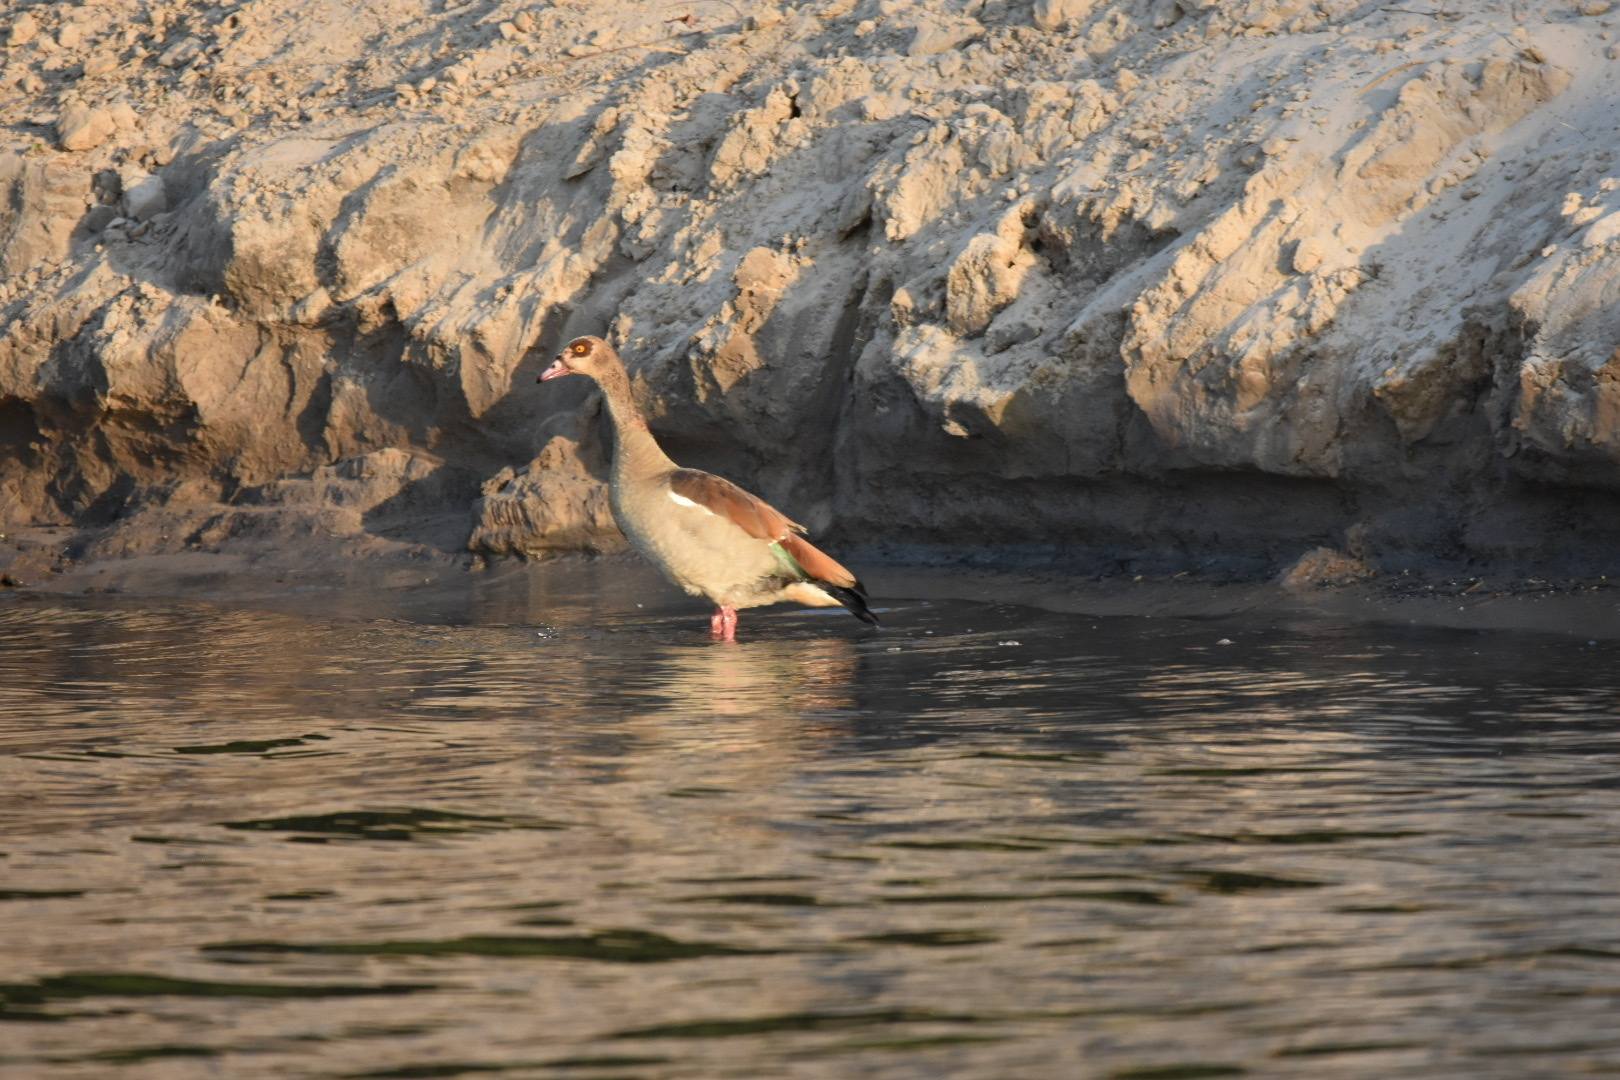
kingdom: Animalia
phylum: Chordata
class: Aves
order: Anseriformes
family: Anatidae
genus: Alopochen
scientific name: Alopochen aegyptiaca
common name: Egyptian goose
